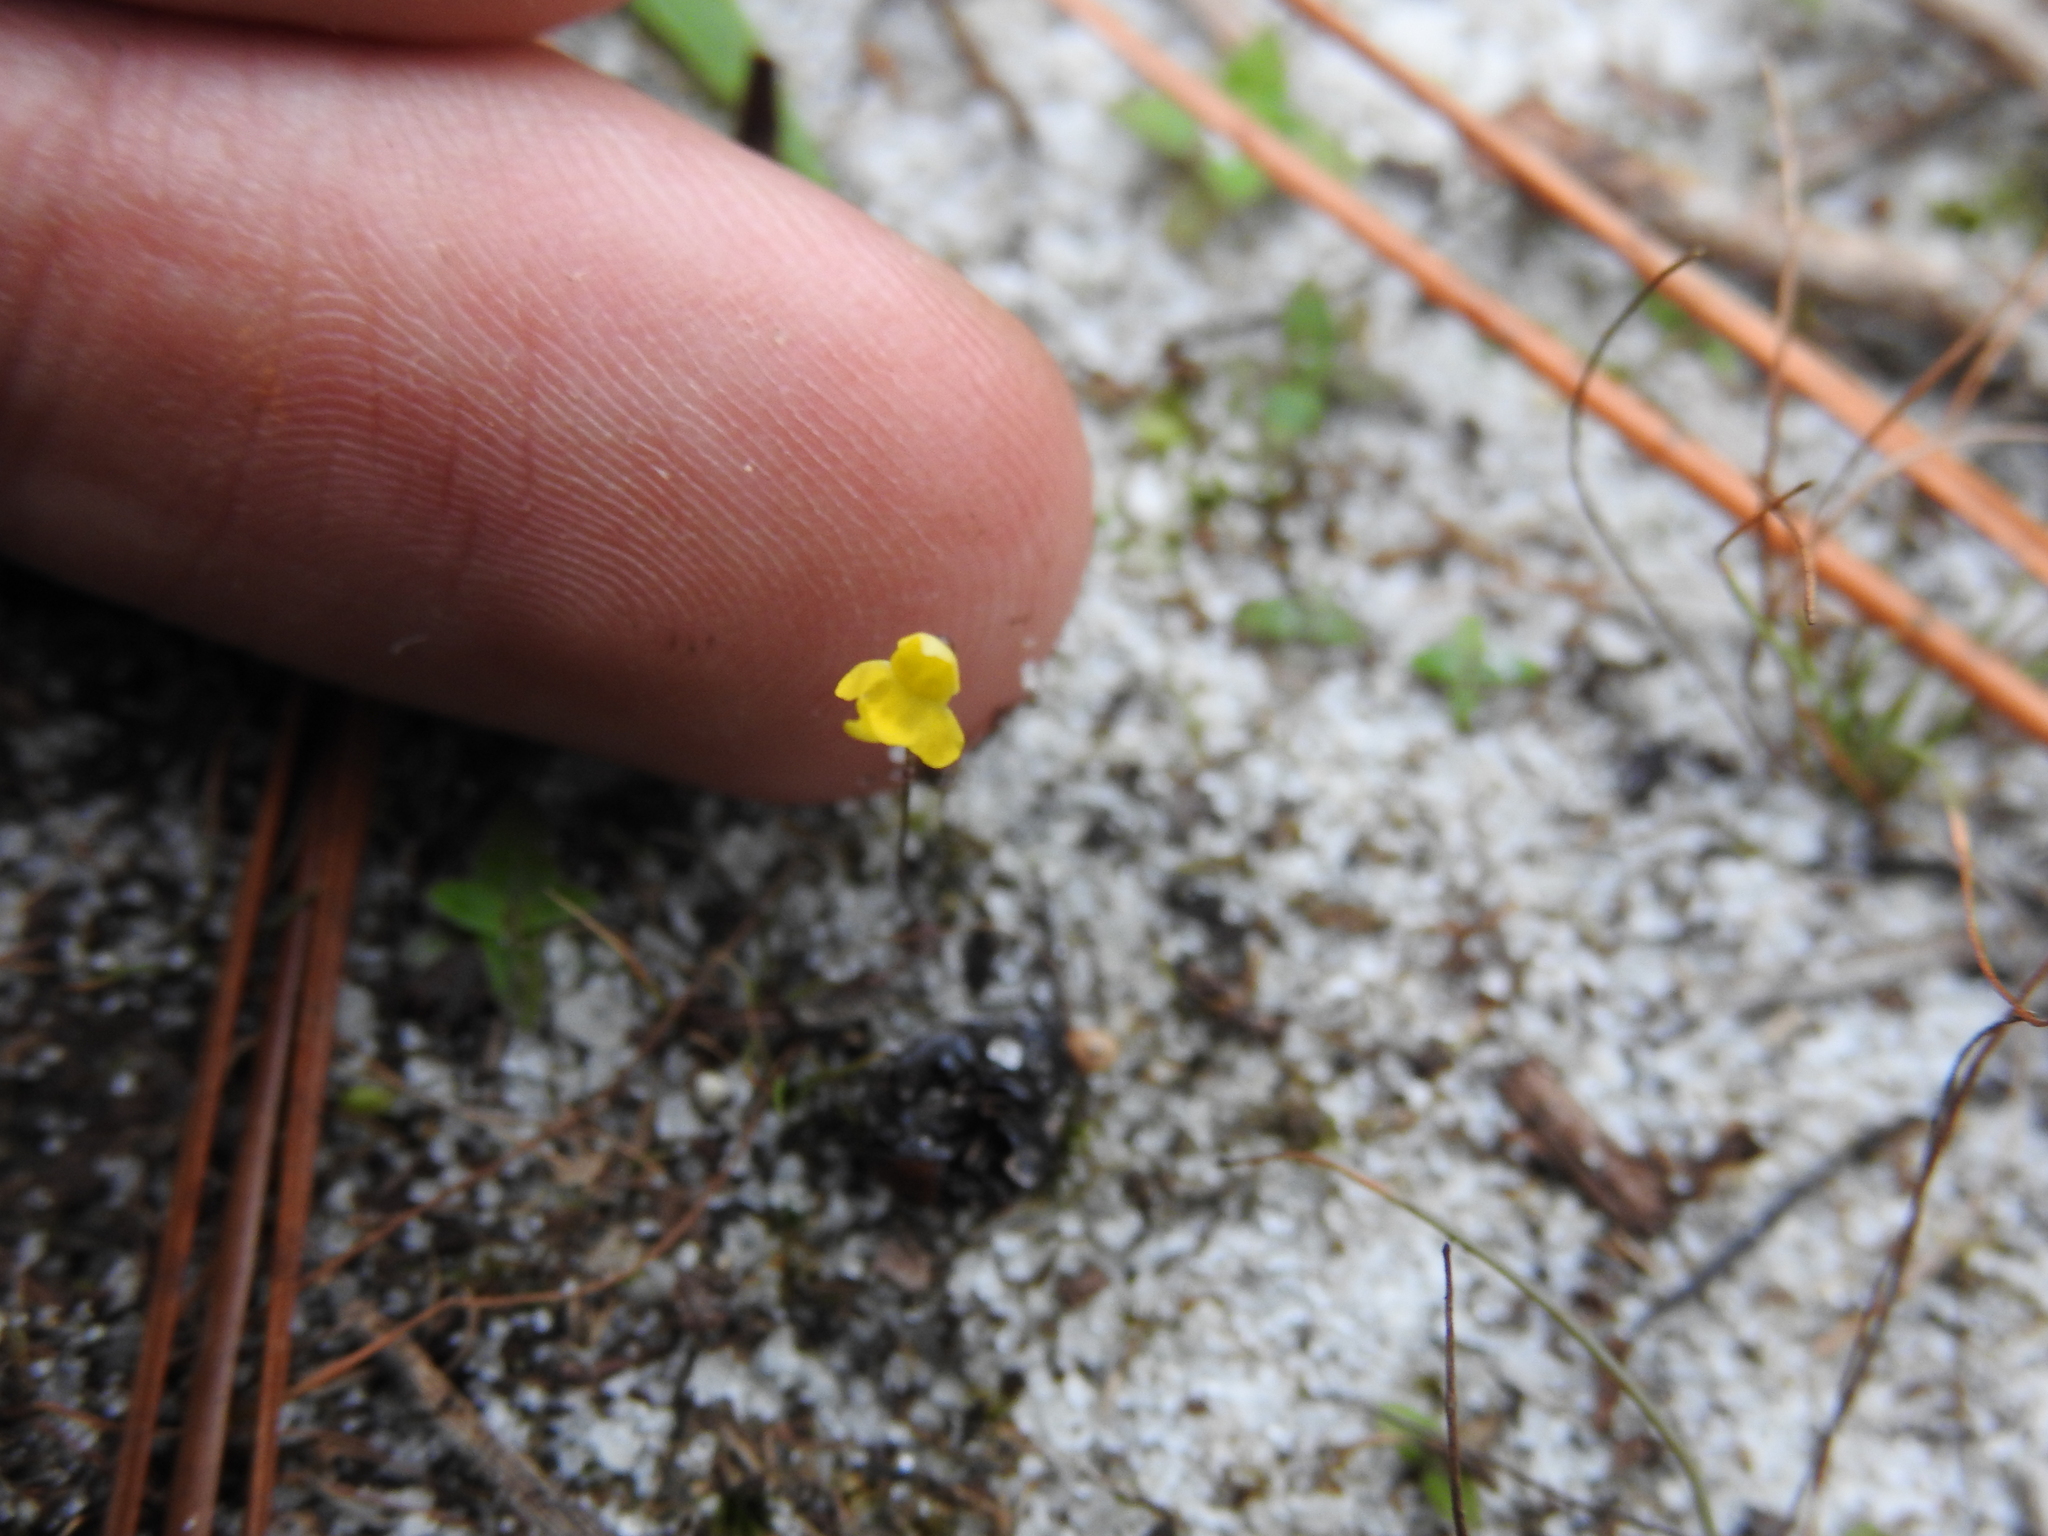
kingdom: Plantae
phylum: Tracheophyta
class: Magnoliopsida
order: Lamiales
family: Lentibulariaceae
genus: Utricularia
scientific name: Utricularia subulata
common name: Tiny bladderwort
